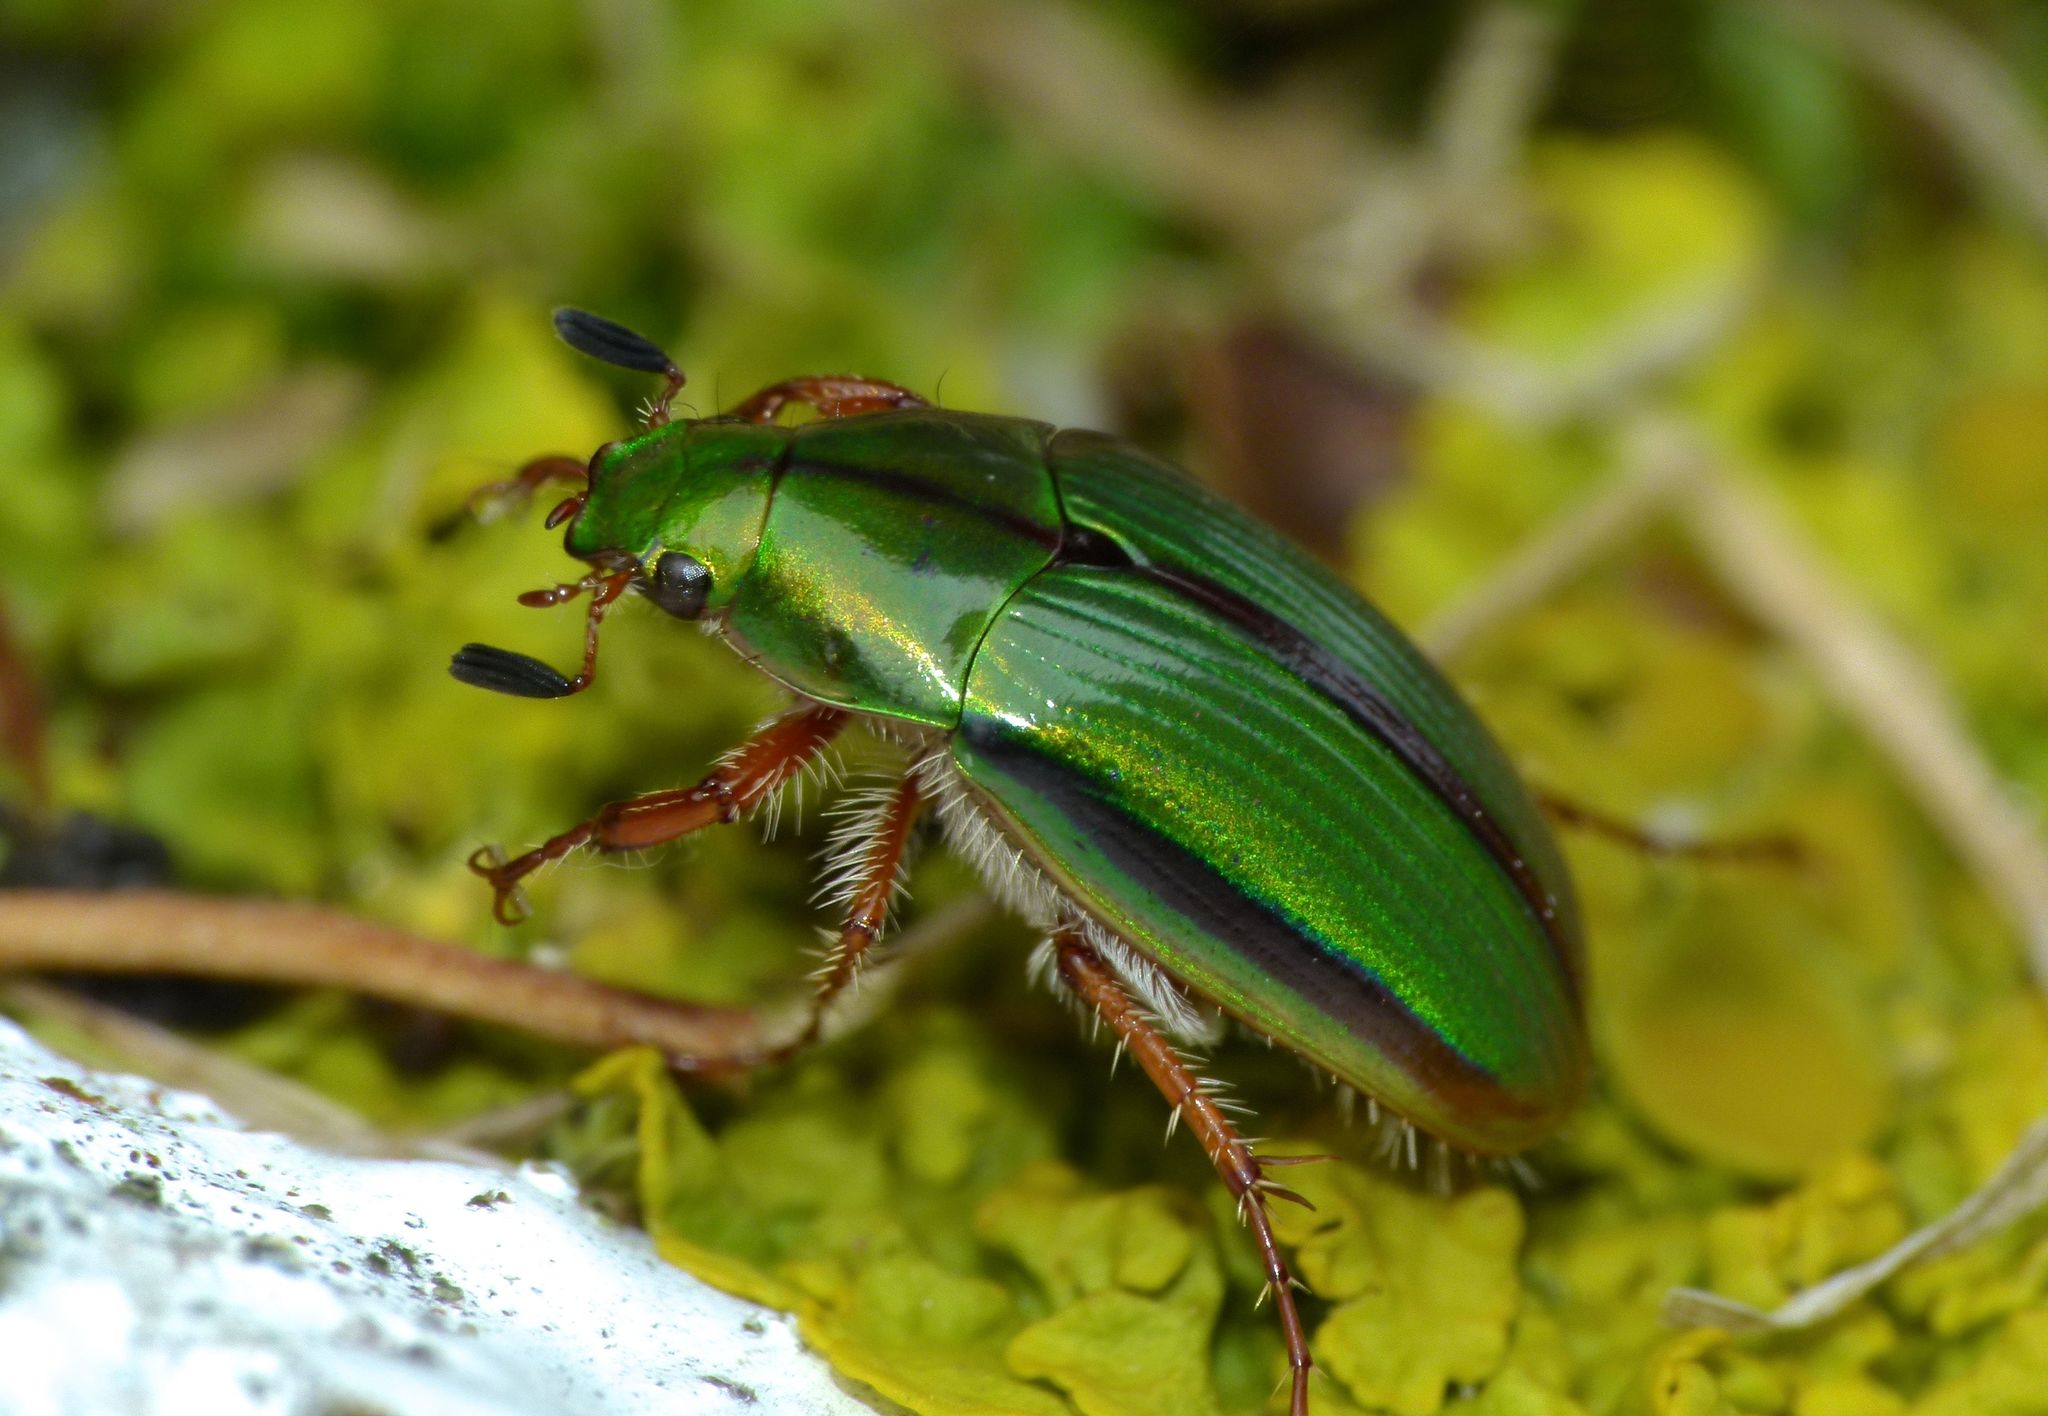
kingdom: Animalia
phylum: Arthropoda
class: Insecta
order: Coleoptera
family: Scarabaeidae
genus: Pyronota
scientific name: Pyronota festiva
